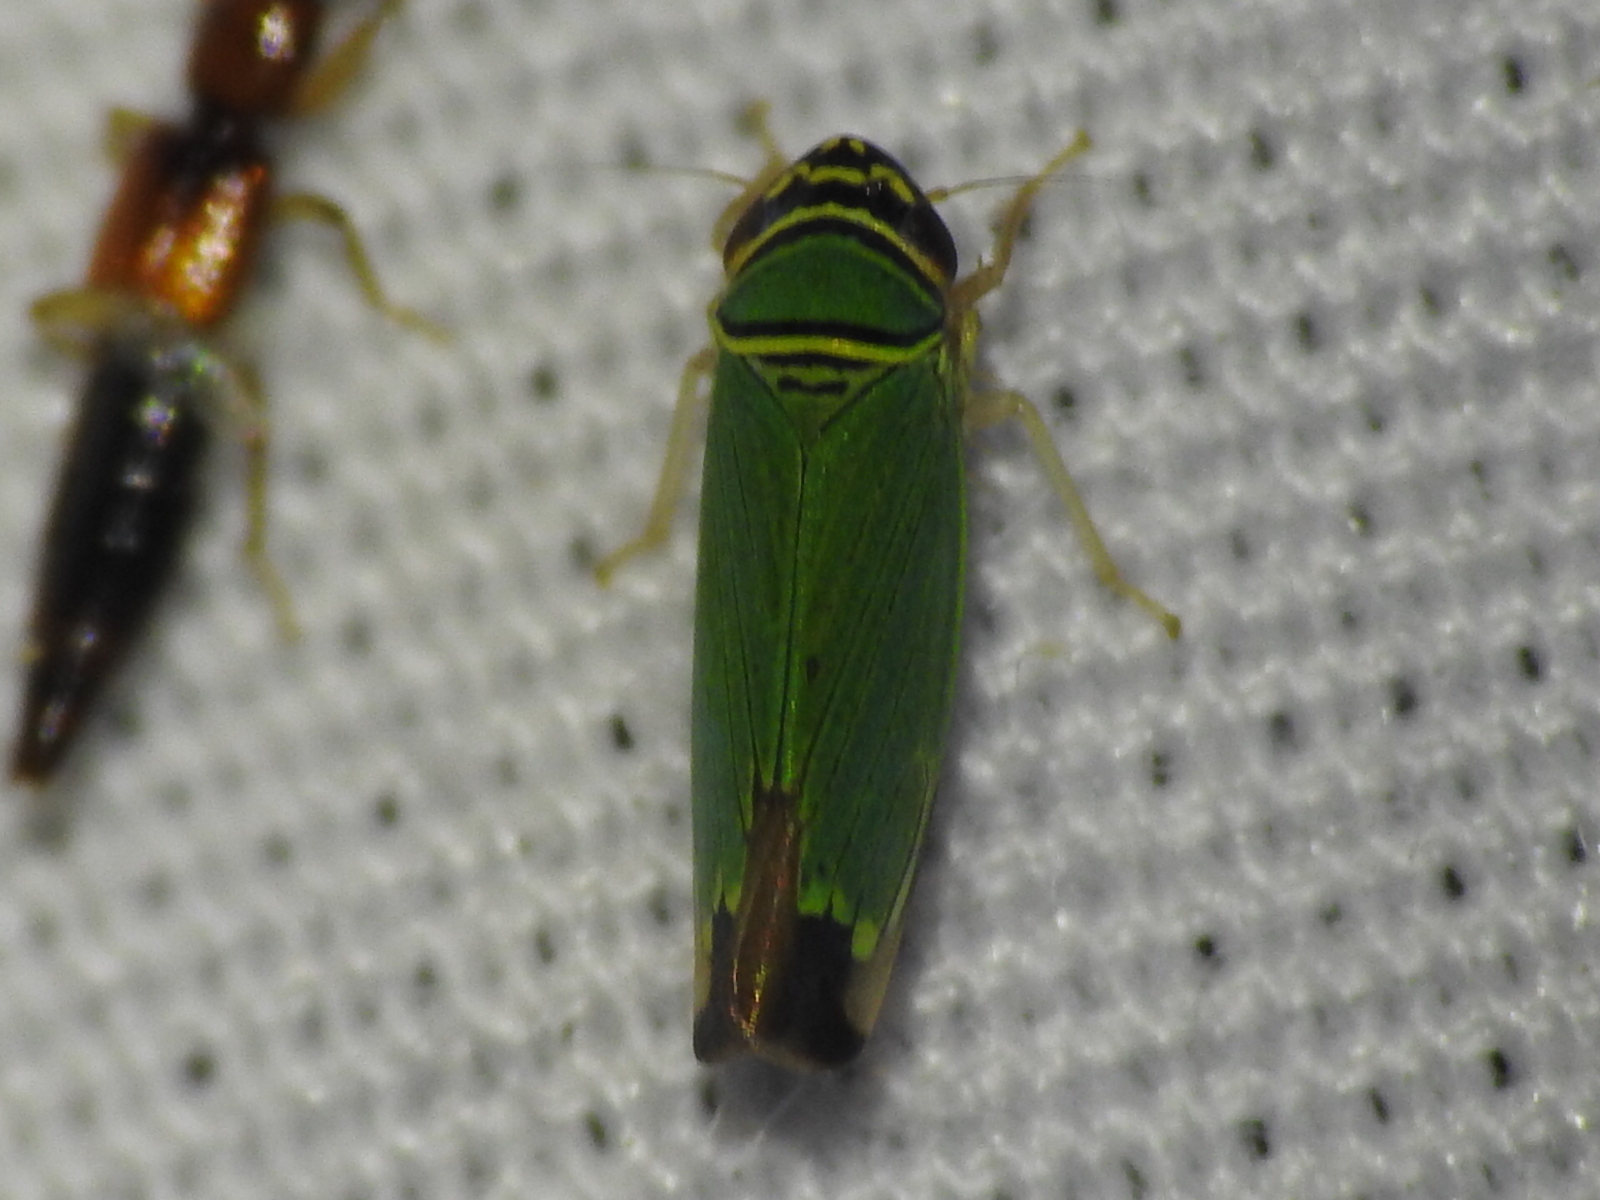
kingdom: Animalia
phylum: Arthropoda
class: Insecta
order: Hemiptera
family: Cicadellidae
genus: Tylozygus
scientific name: Tylozygus geometricus
